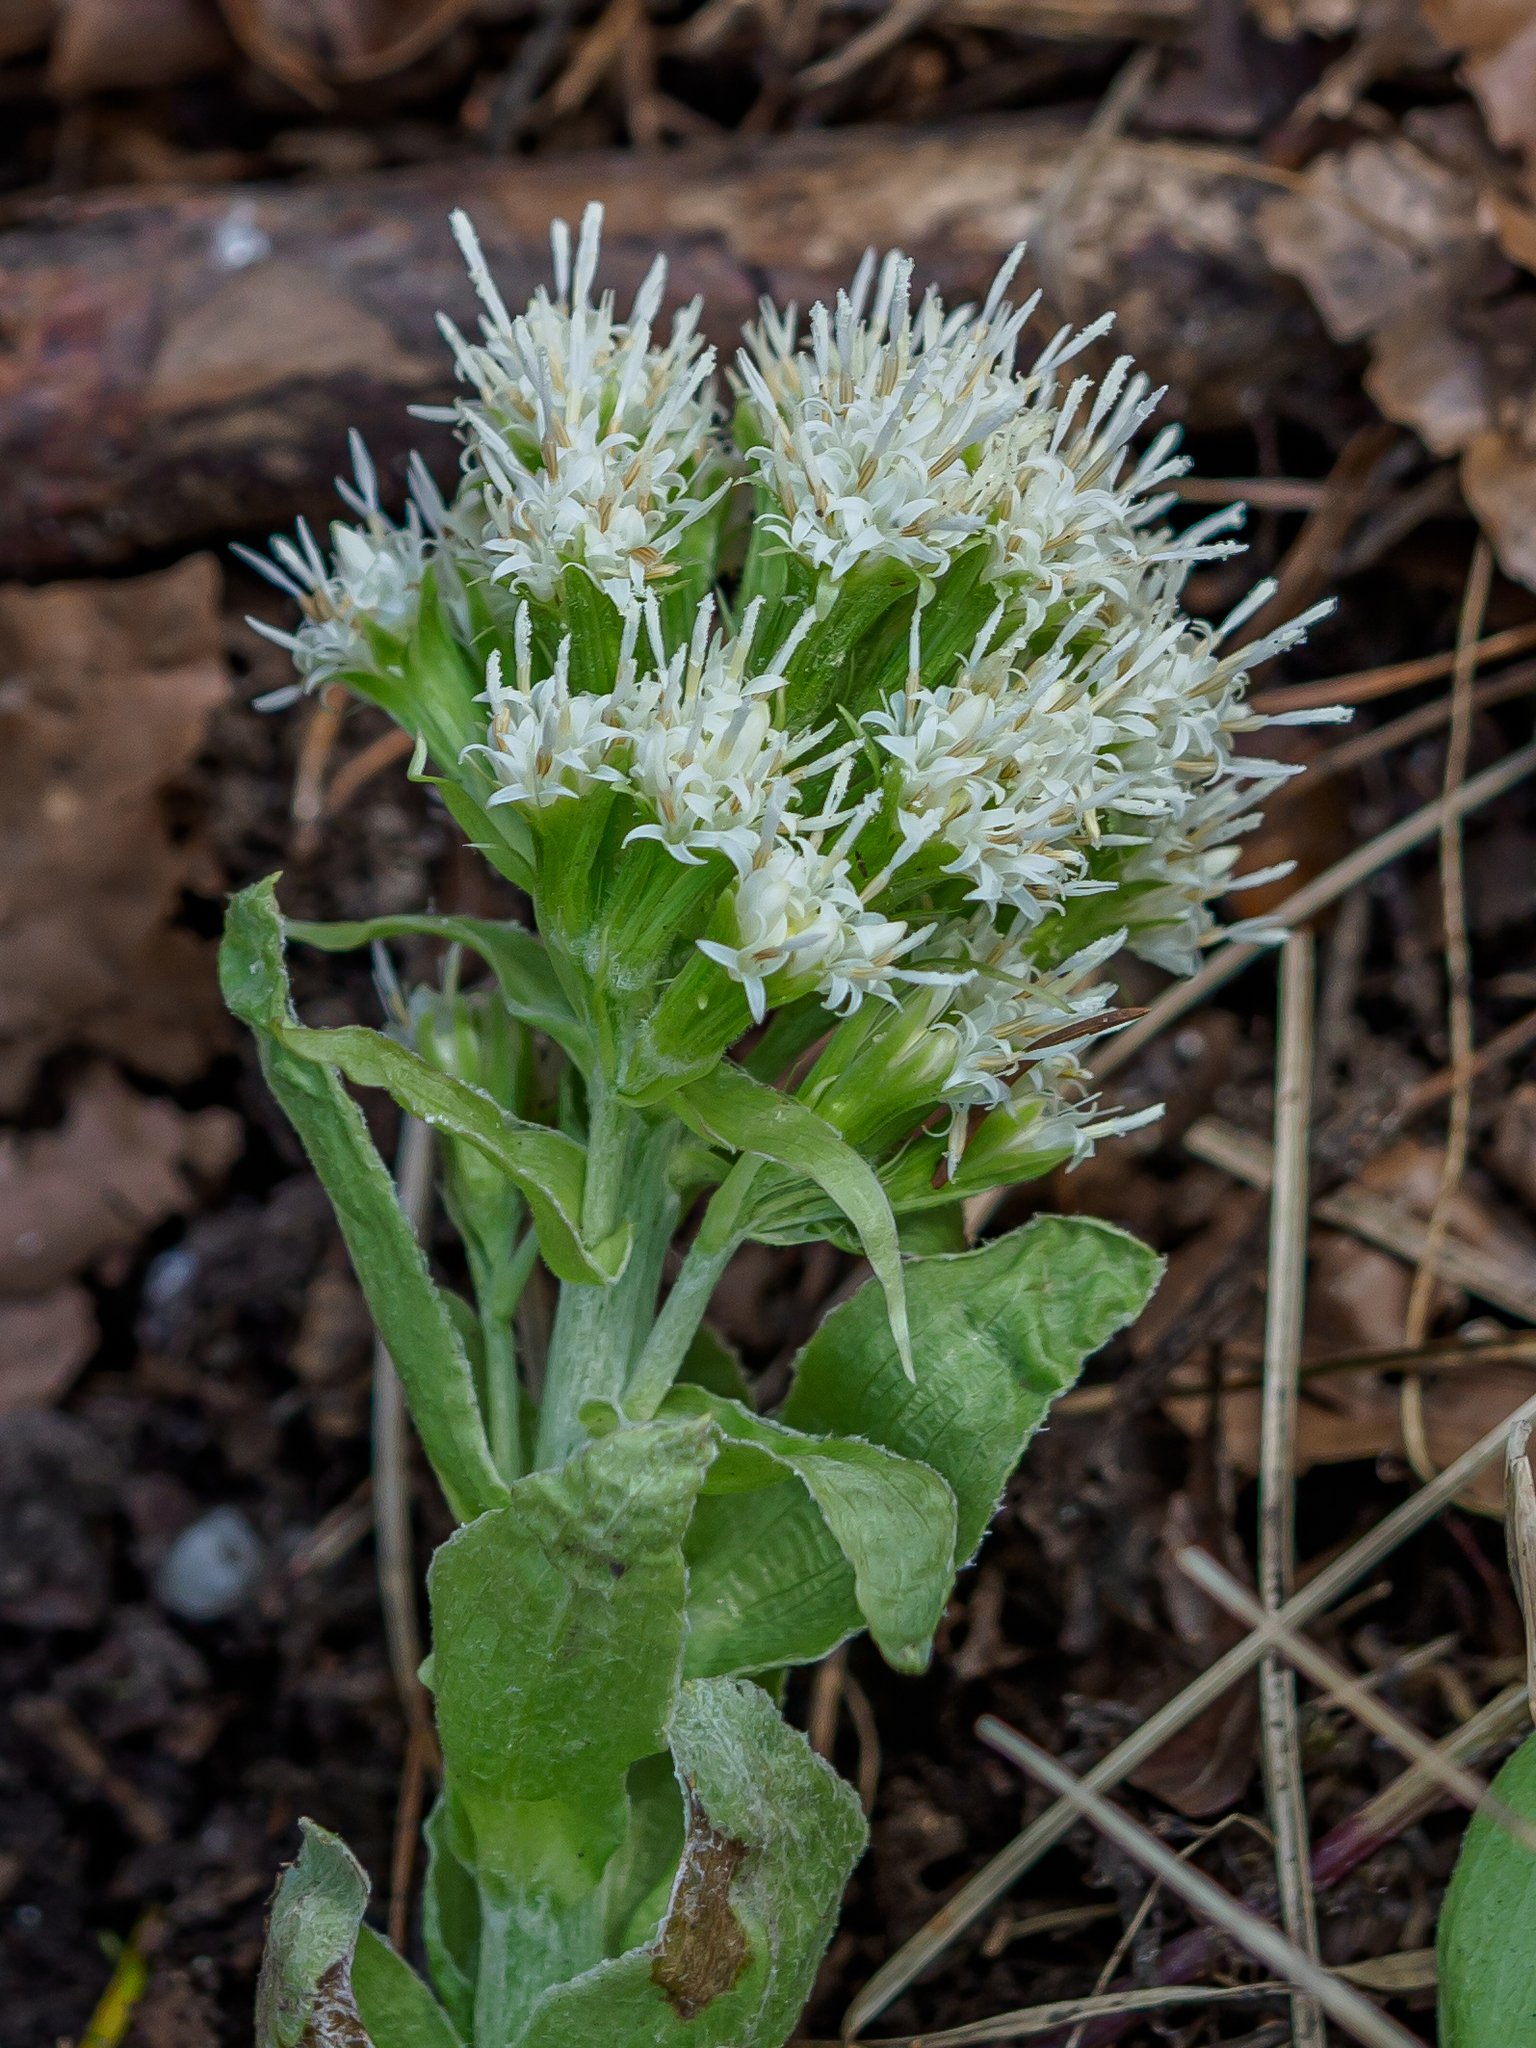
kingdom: Plantae
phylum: Tracheophyta
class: Magnoliopsida
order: Asterales
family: Asteraceae
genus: Petasites
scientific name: Petasites albus
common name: White butterbur
